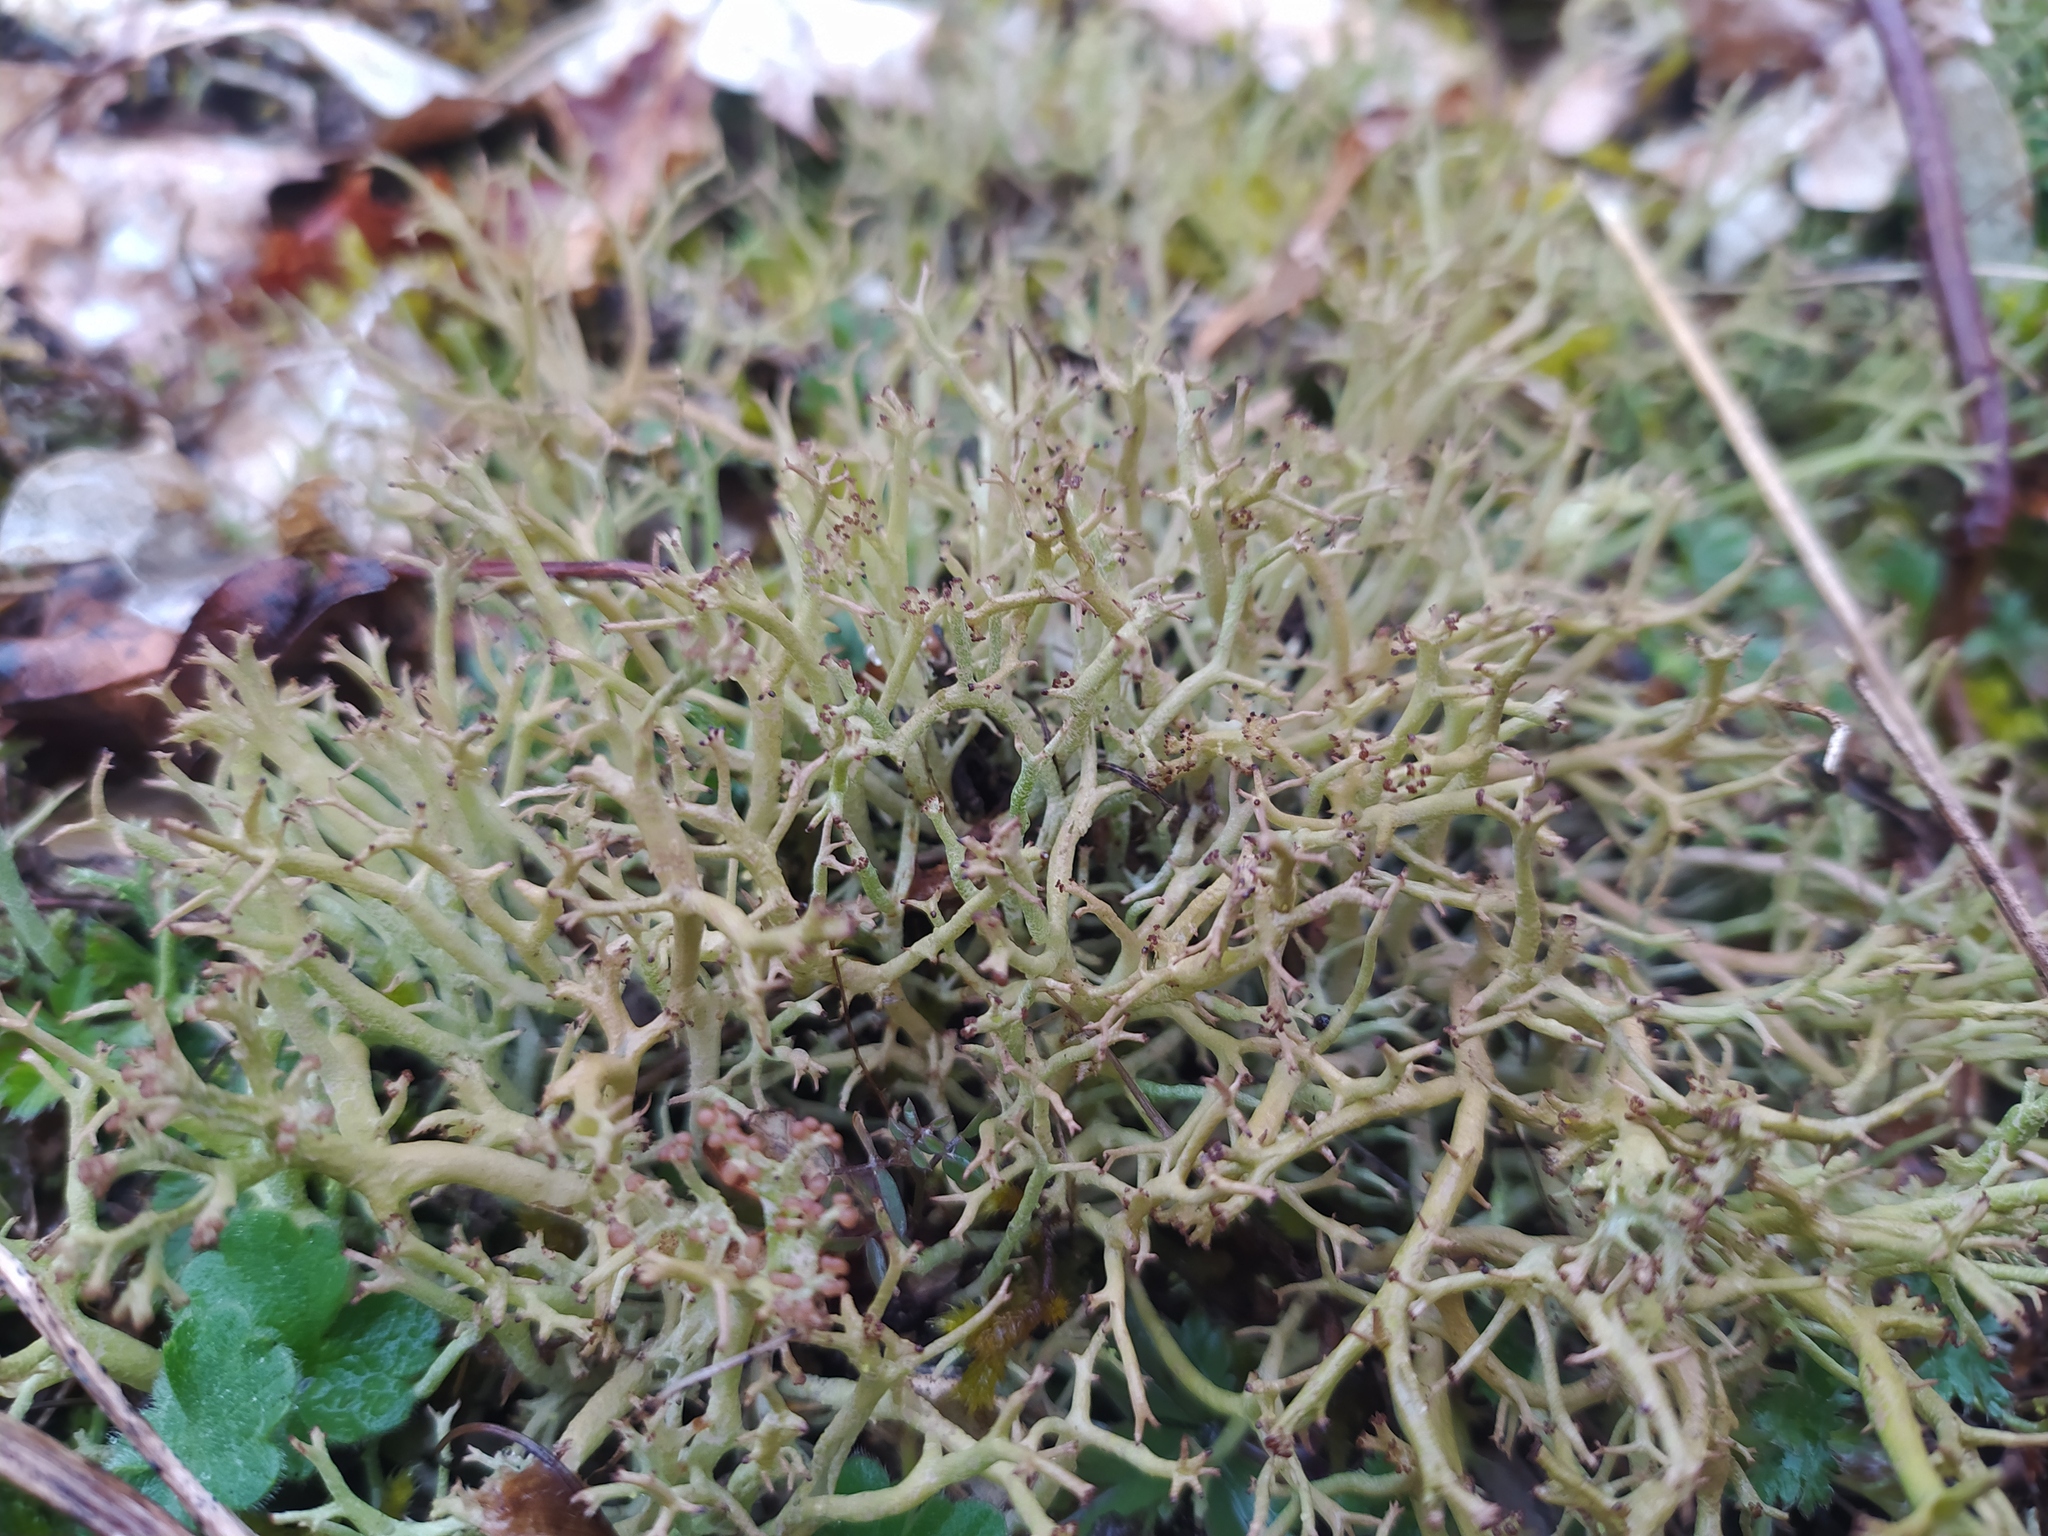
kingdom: Fungi
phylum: Ascomycota
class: Lecanoromycetes
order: Lecanorales
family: Cladoniaceae
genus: Cladonia
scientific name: Cladonia furcata
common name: Many-forked cladonia
